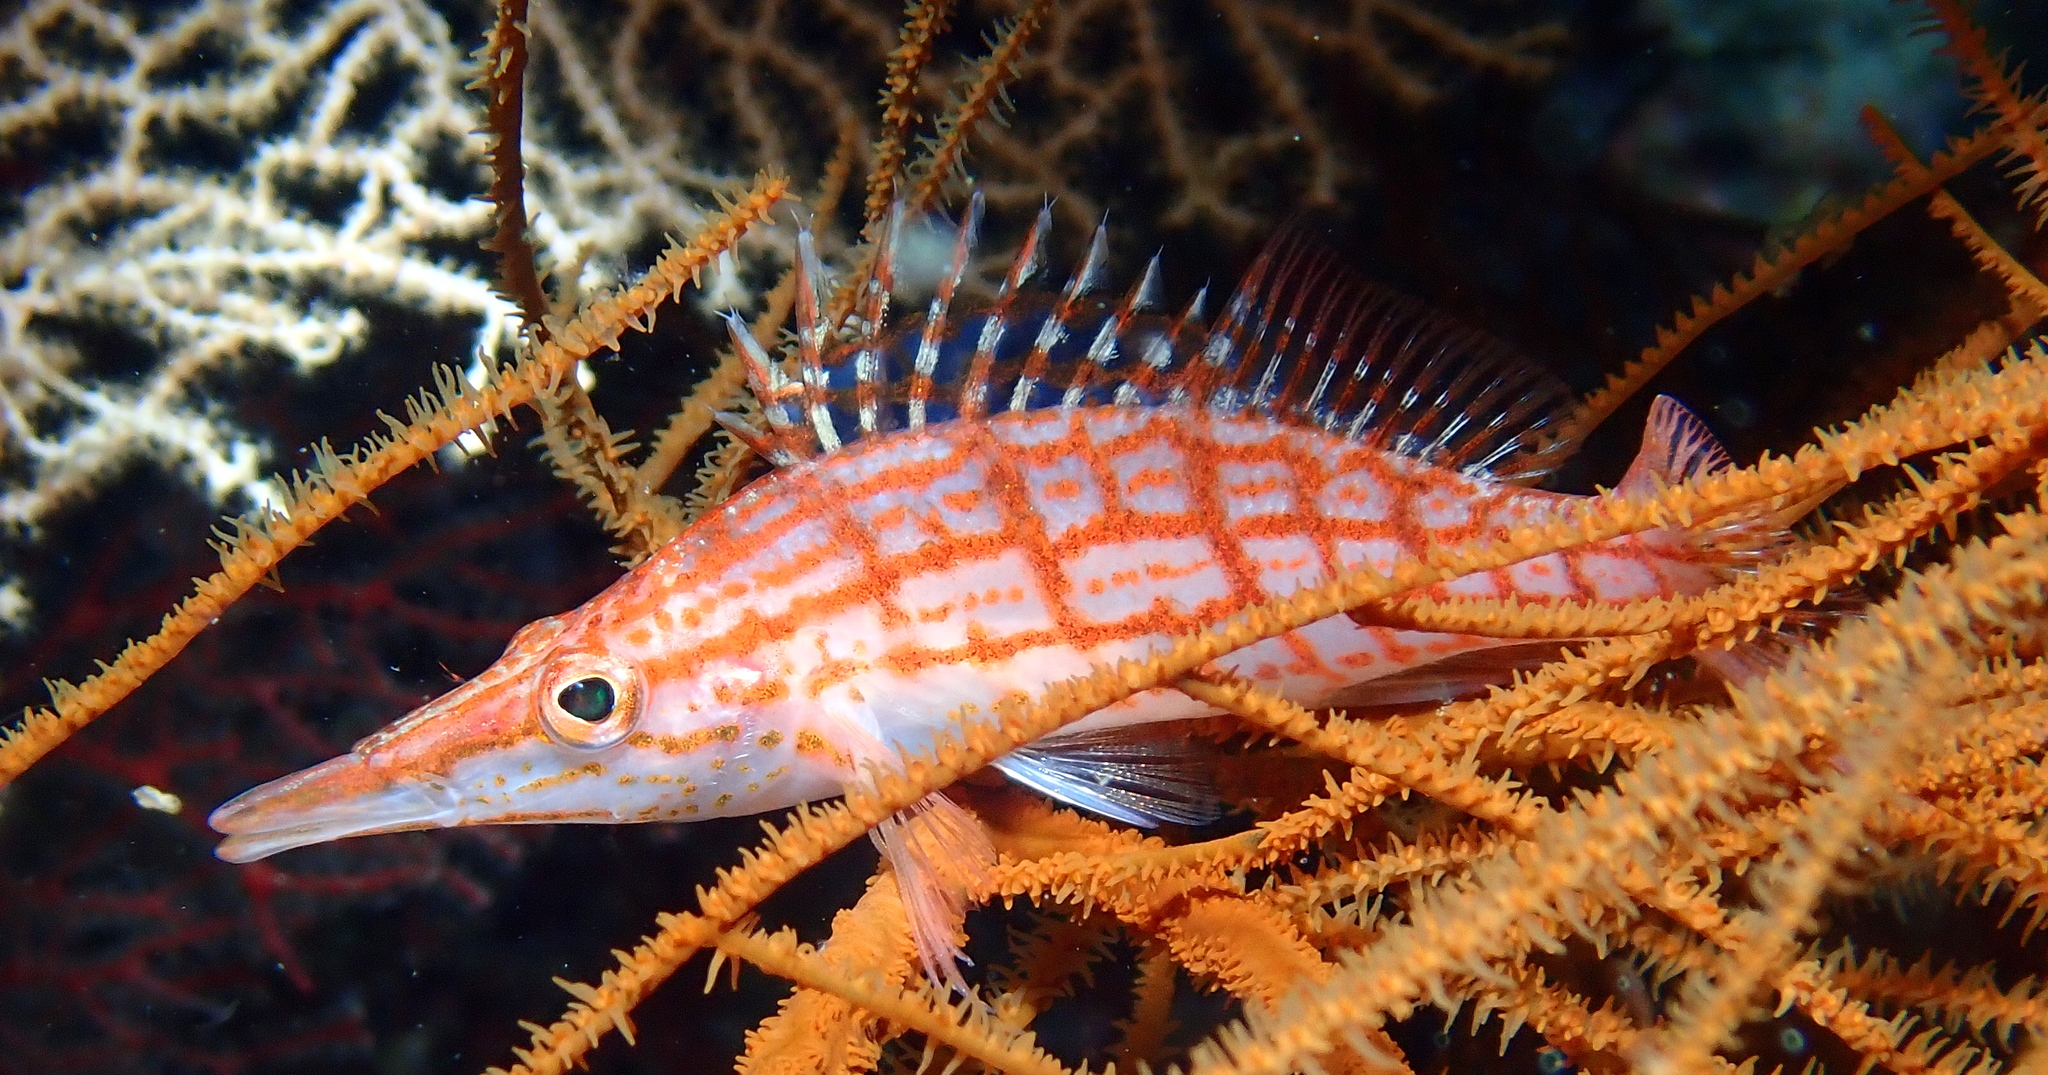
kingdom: Animalia
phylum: Chordata
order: Perciformes
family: Cirrhitidae
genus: Oxycirrhites
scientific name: Oxycirrhites typus
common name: Longnose hawkfish
